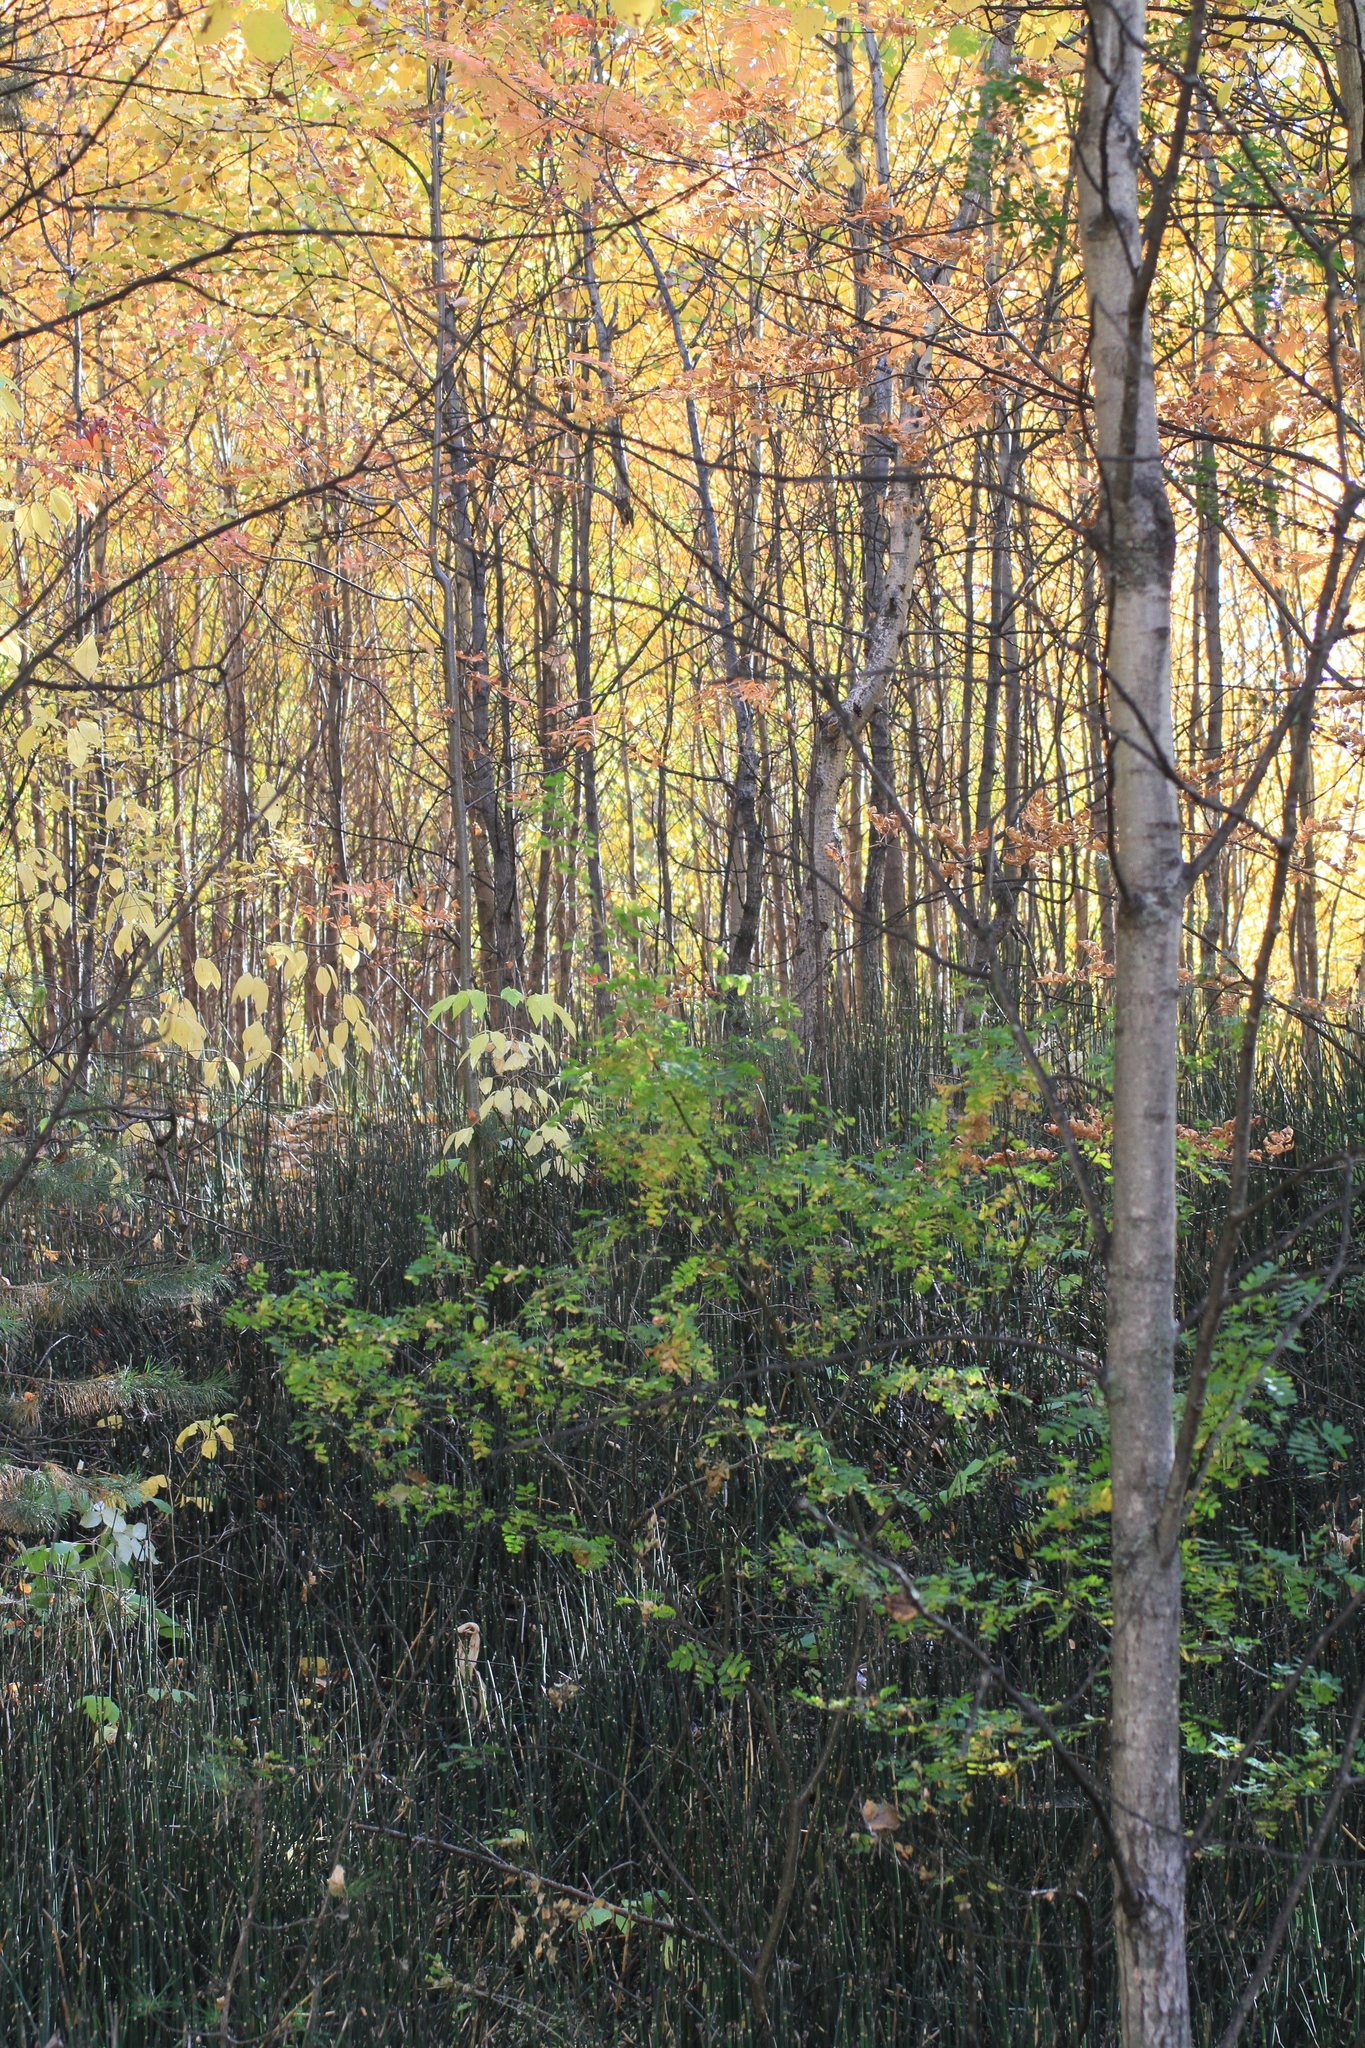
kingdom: Plantae
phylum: Tracheophyta
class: Magnoliopsida
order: Malpighiales
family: Salicaceae
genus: Populus
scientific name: Populus tremula
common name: European aspen
